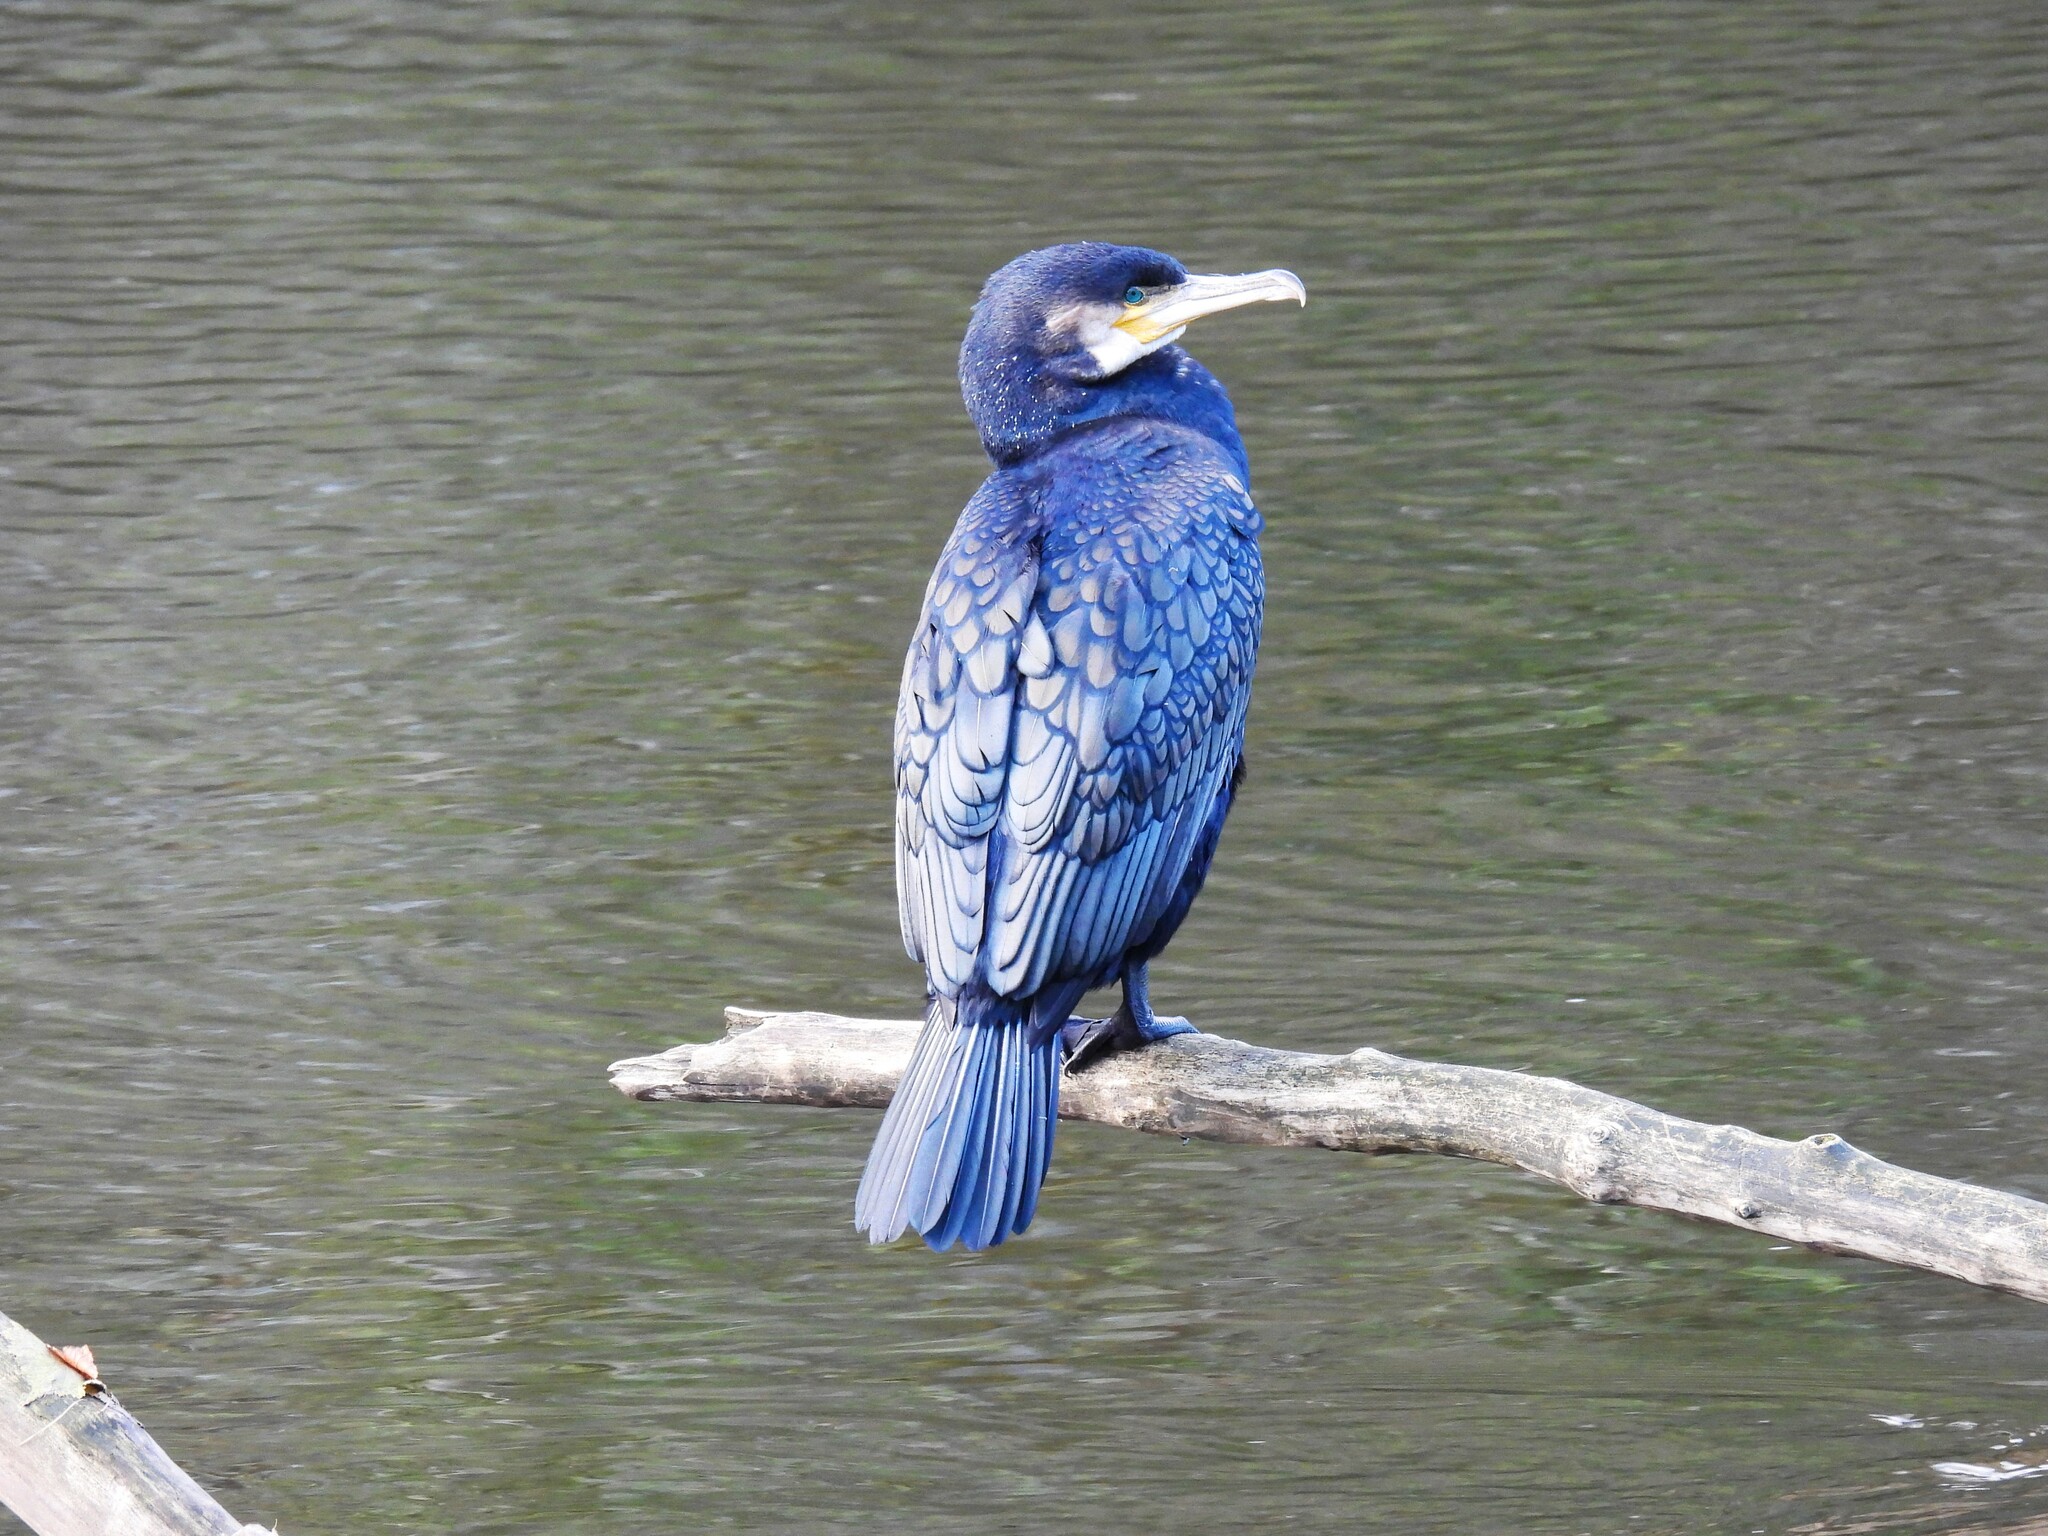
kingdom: Animalia
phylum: Chordata
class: Aves
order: Suliformes
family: Phalacrocoracidae
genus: Phalacrocorax
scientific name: Phalacrocorax carbo
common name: Great cormorant
